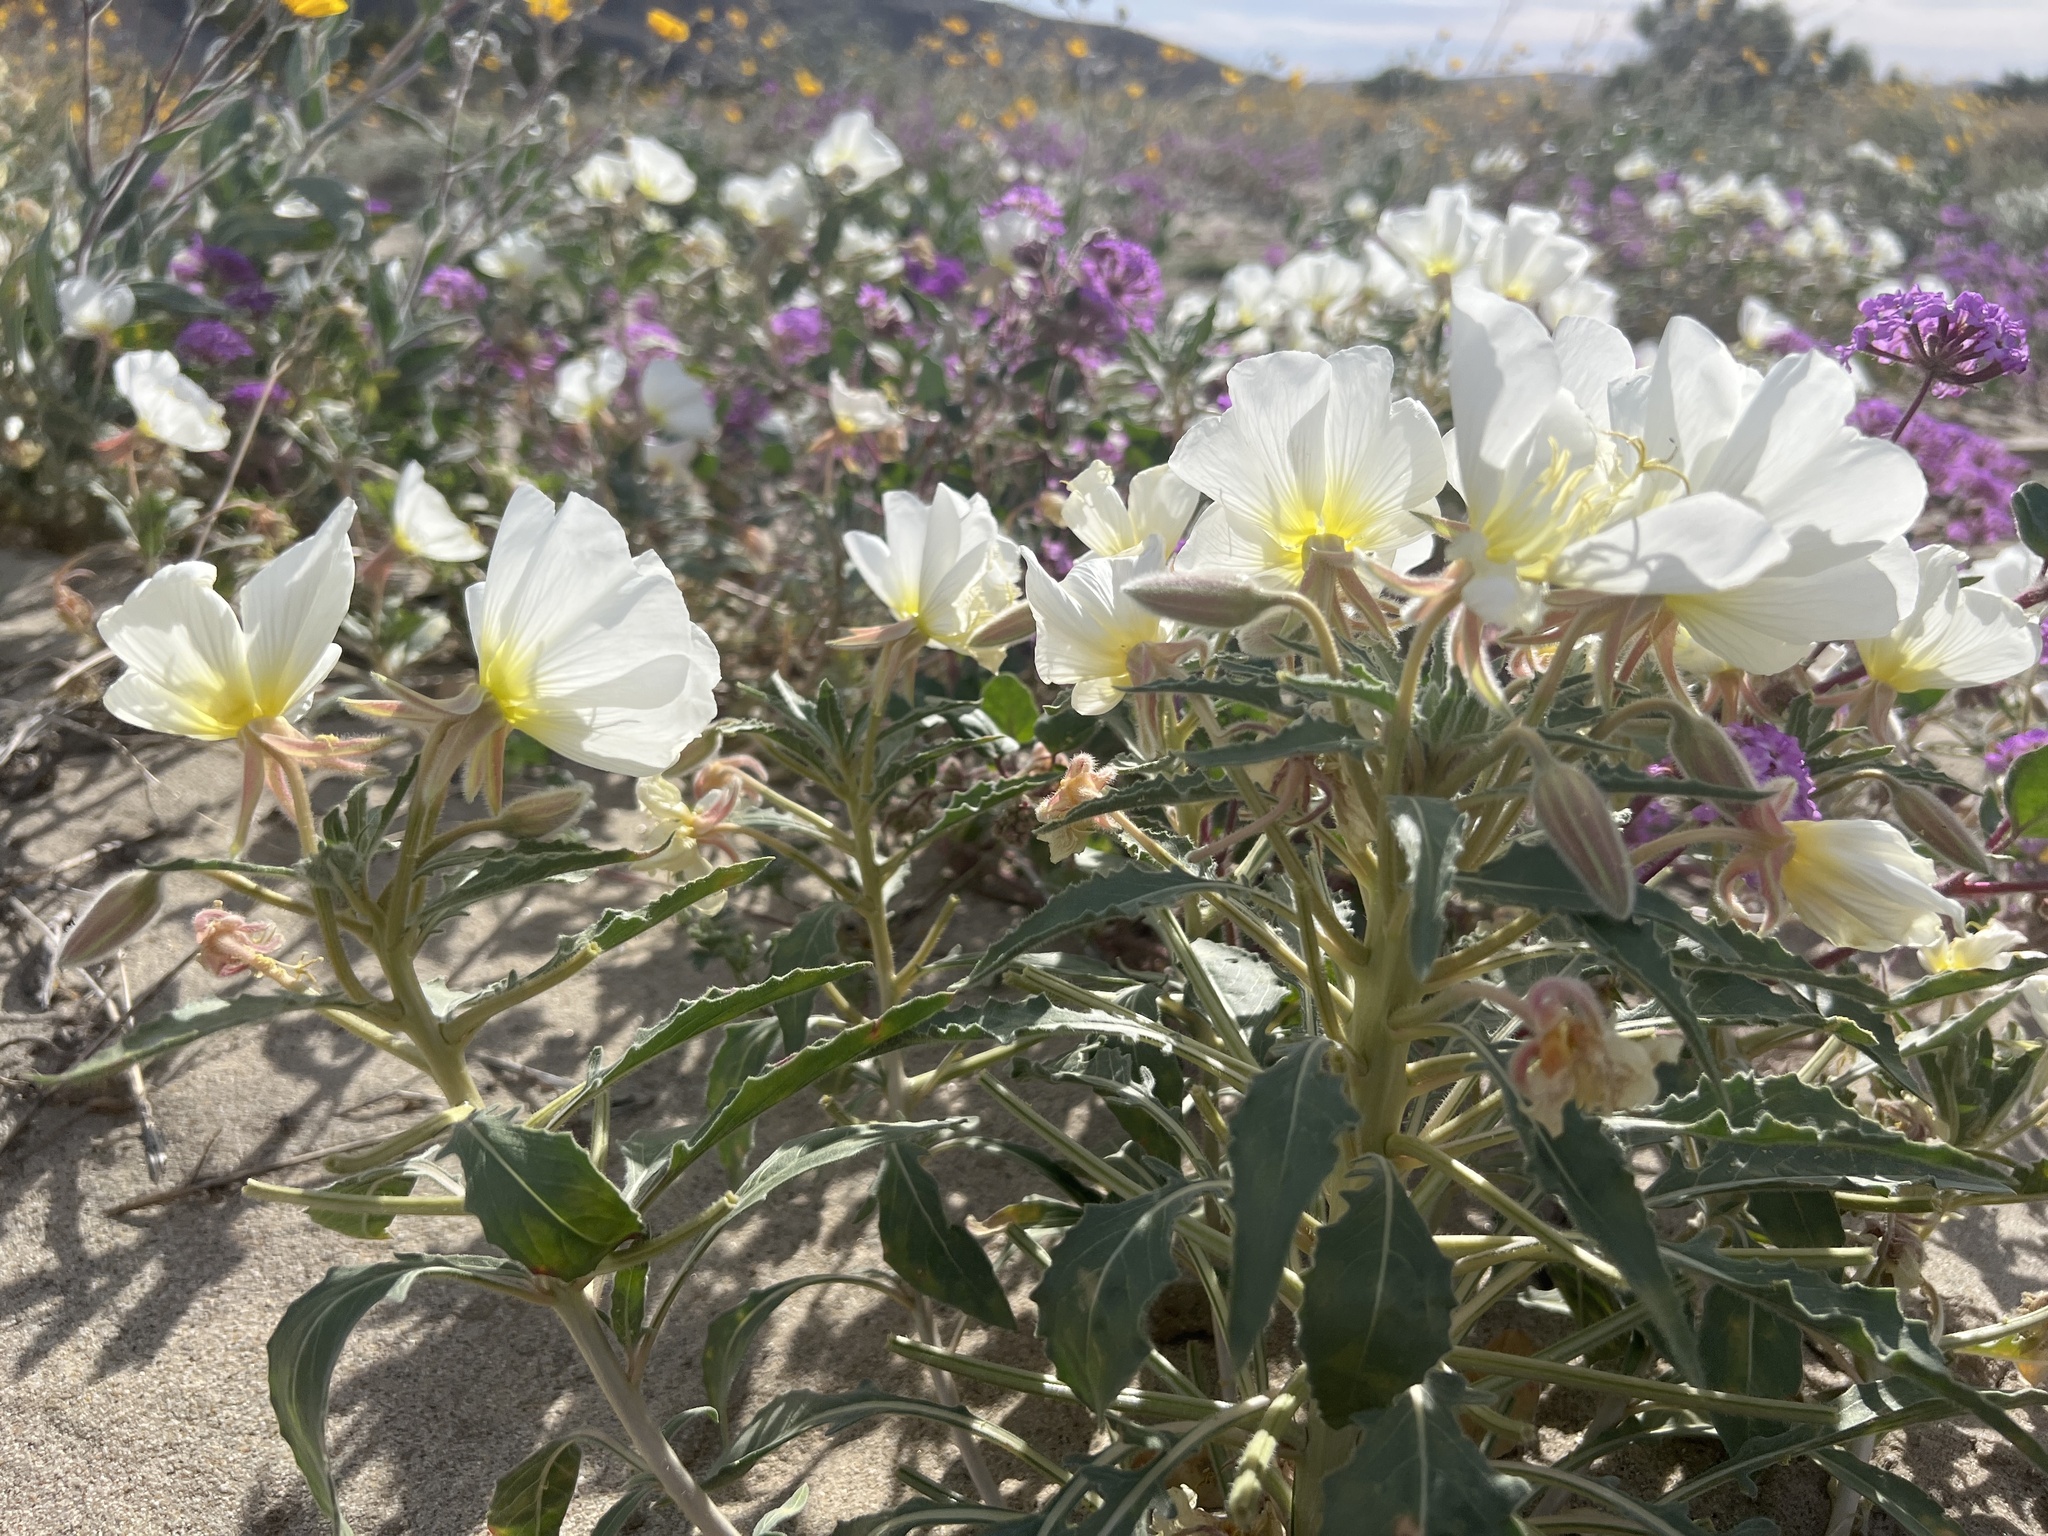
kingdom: Plantae
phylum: Tracheophyta
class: Magnoliopsida
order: Myrtales
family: Onagraceae
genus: Oenothera
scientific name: Oenothera deltoides
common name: Basket evening-primrose
